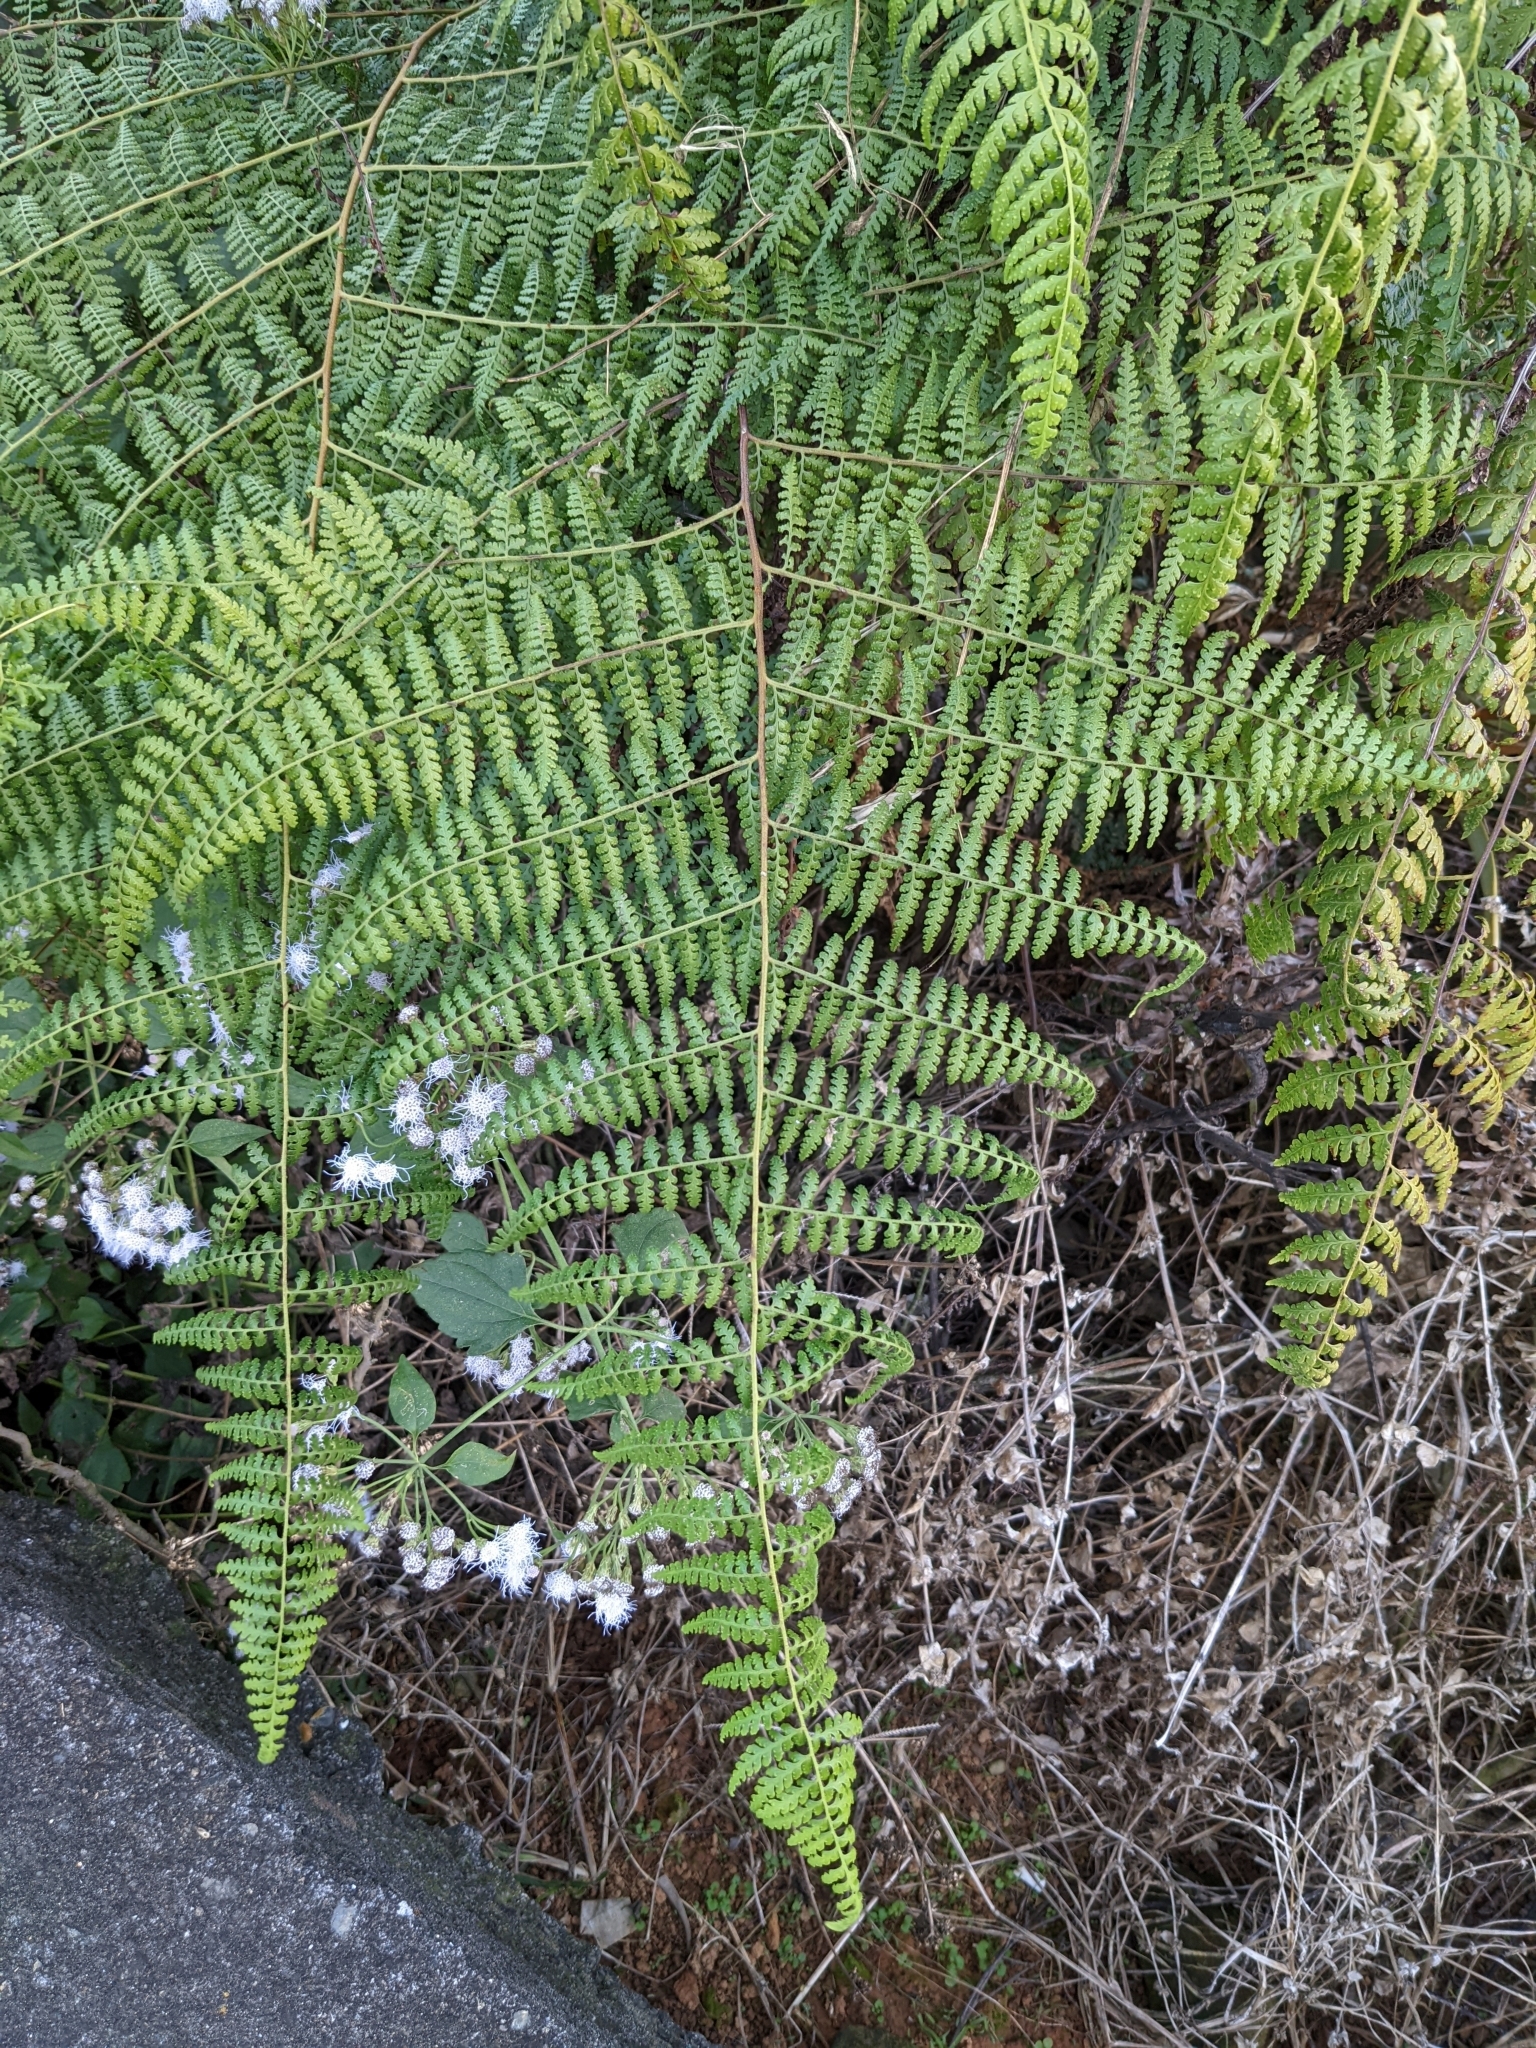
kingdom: Plantae
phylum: Tracheophyta
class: Polypodiopsida
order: Polypodiales
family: Dennstaedtiaceae
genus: Microlepia
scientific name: Microlepia nepalensis
